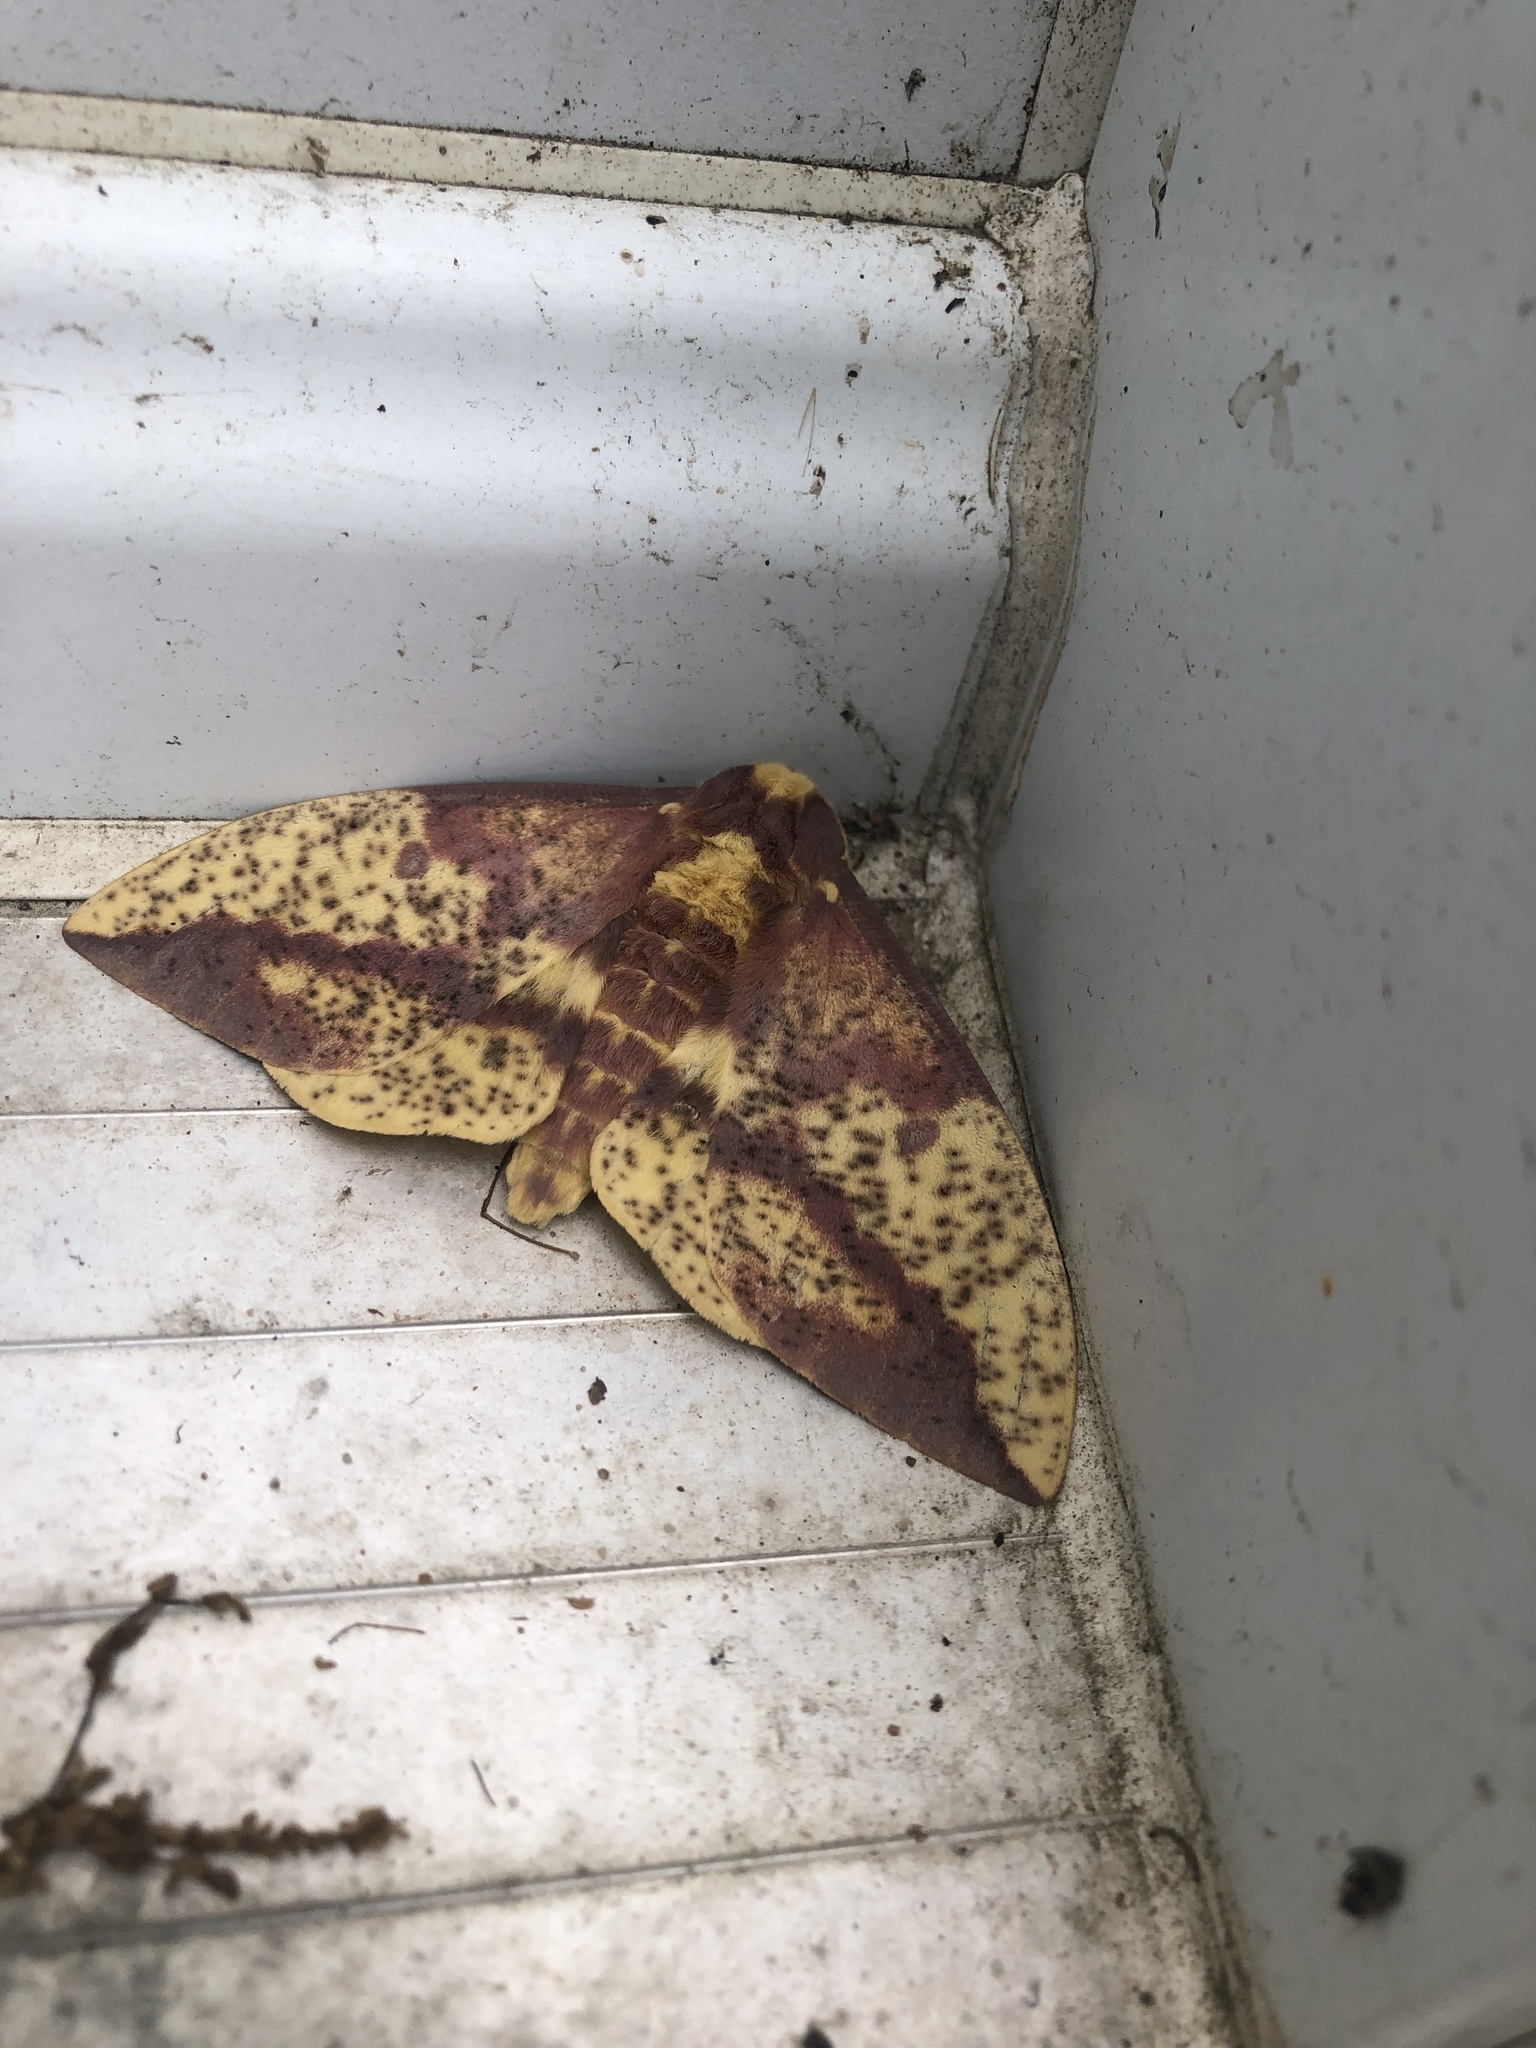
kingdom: Animalia
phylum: Arthropoda
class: Insecta
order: Lepidoptera
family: Saturniidae
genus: Eacles
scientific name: Eacles
